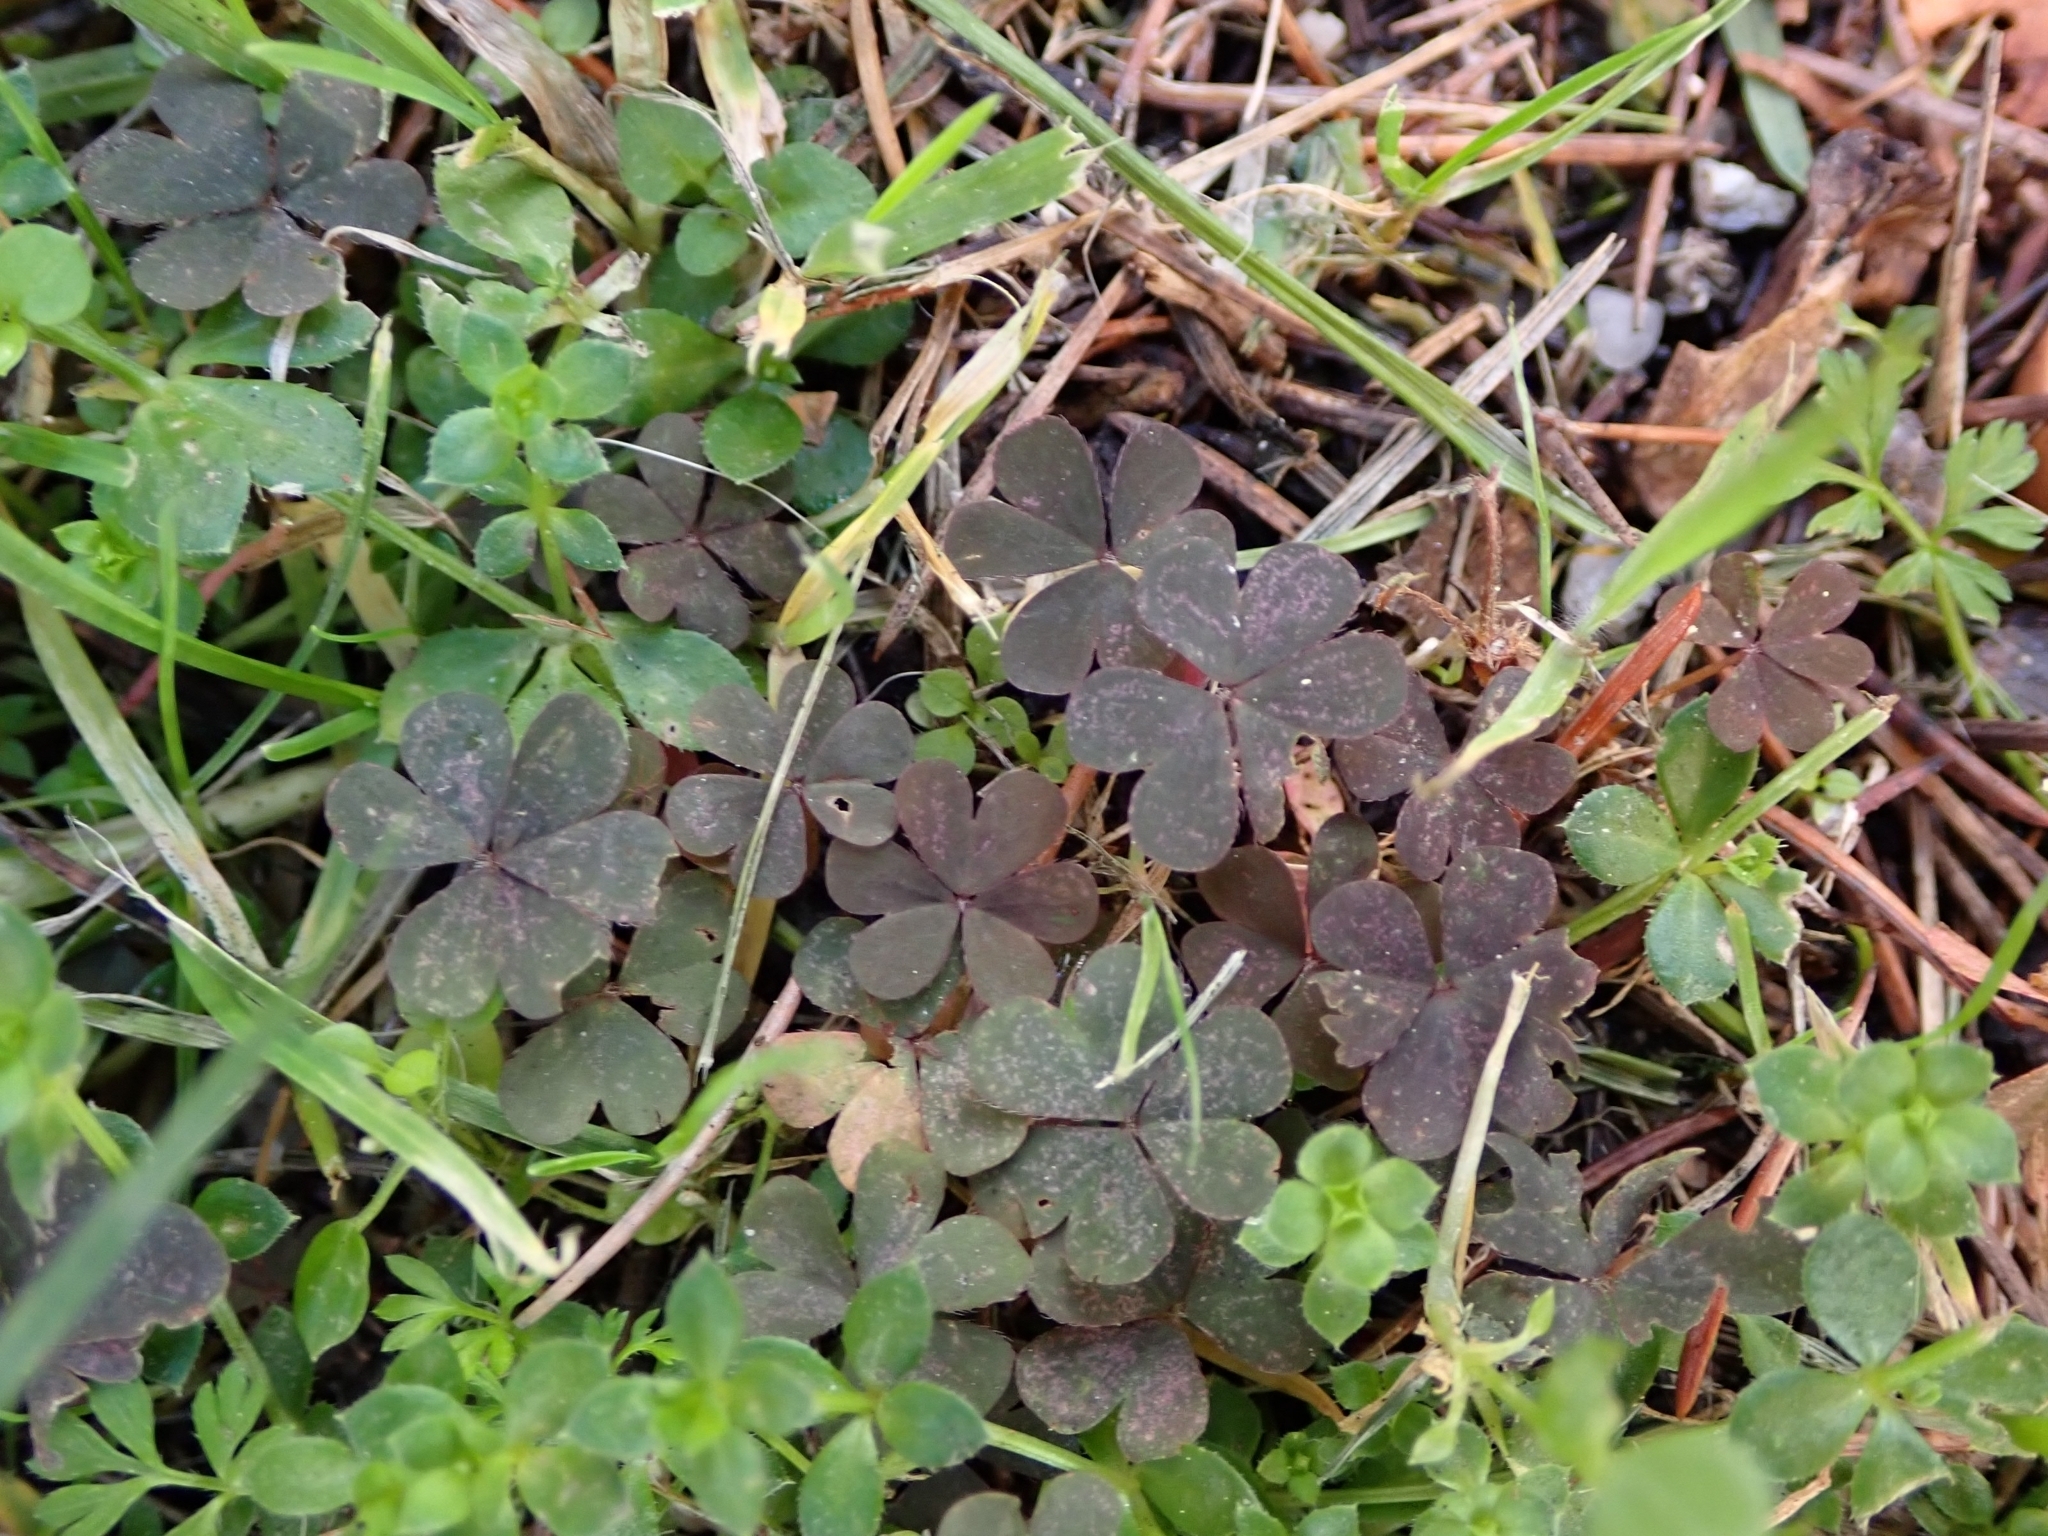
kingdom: Plantae
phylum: Tracheophyta
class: Magnoliopsida
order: Oxalidales
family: Oxalidaceae
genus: Oxalis
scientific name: Oxalis corniculata
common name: Procumbent yellow-sorrel
